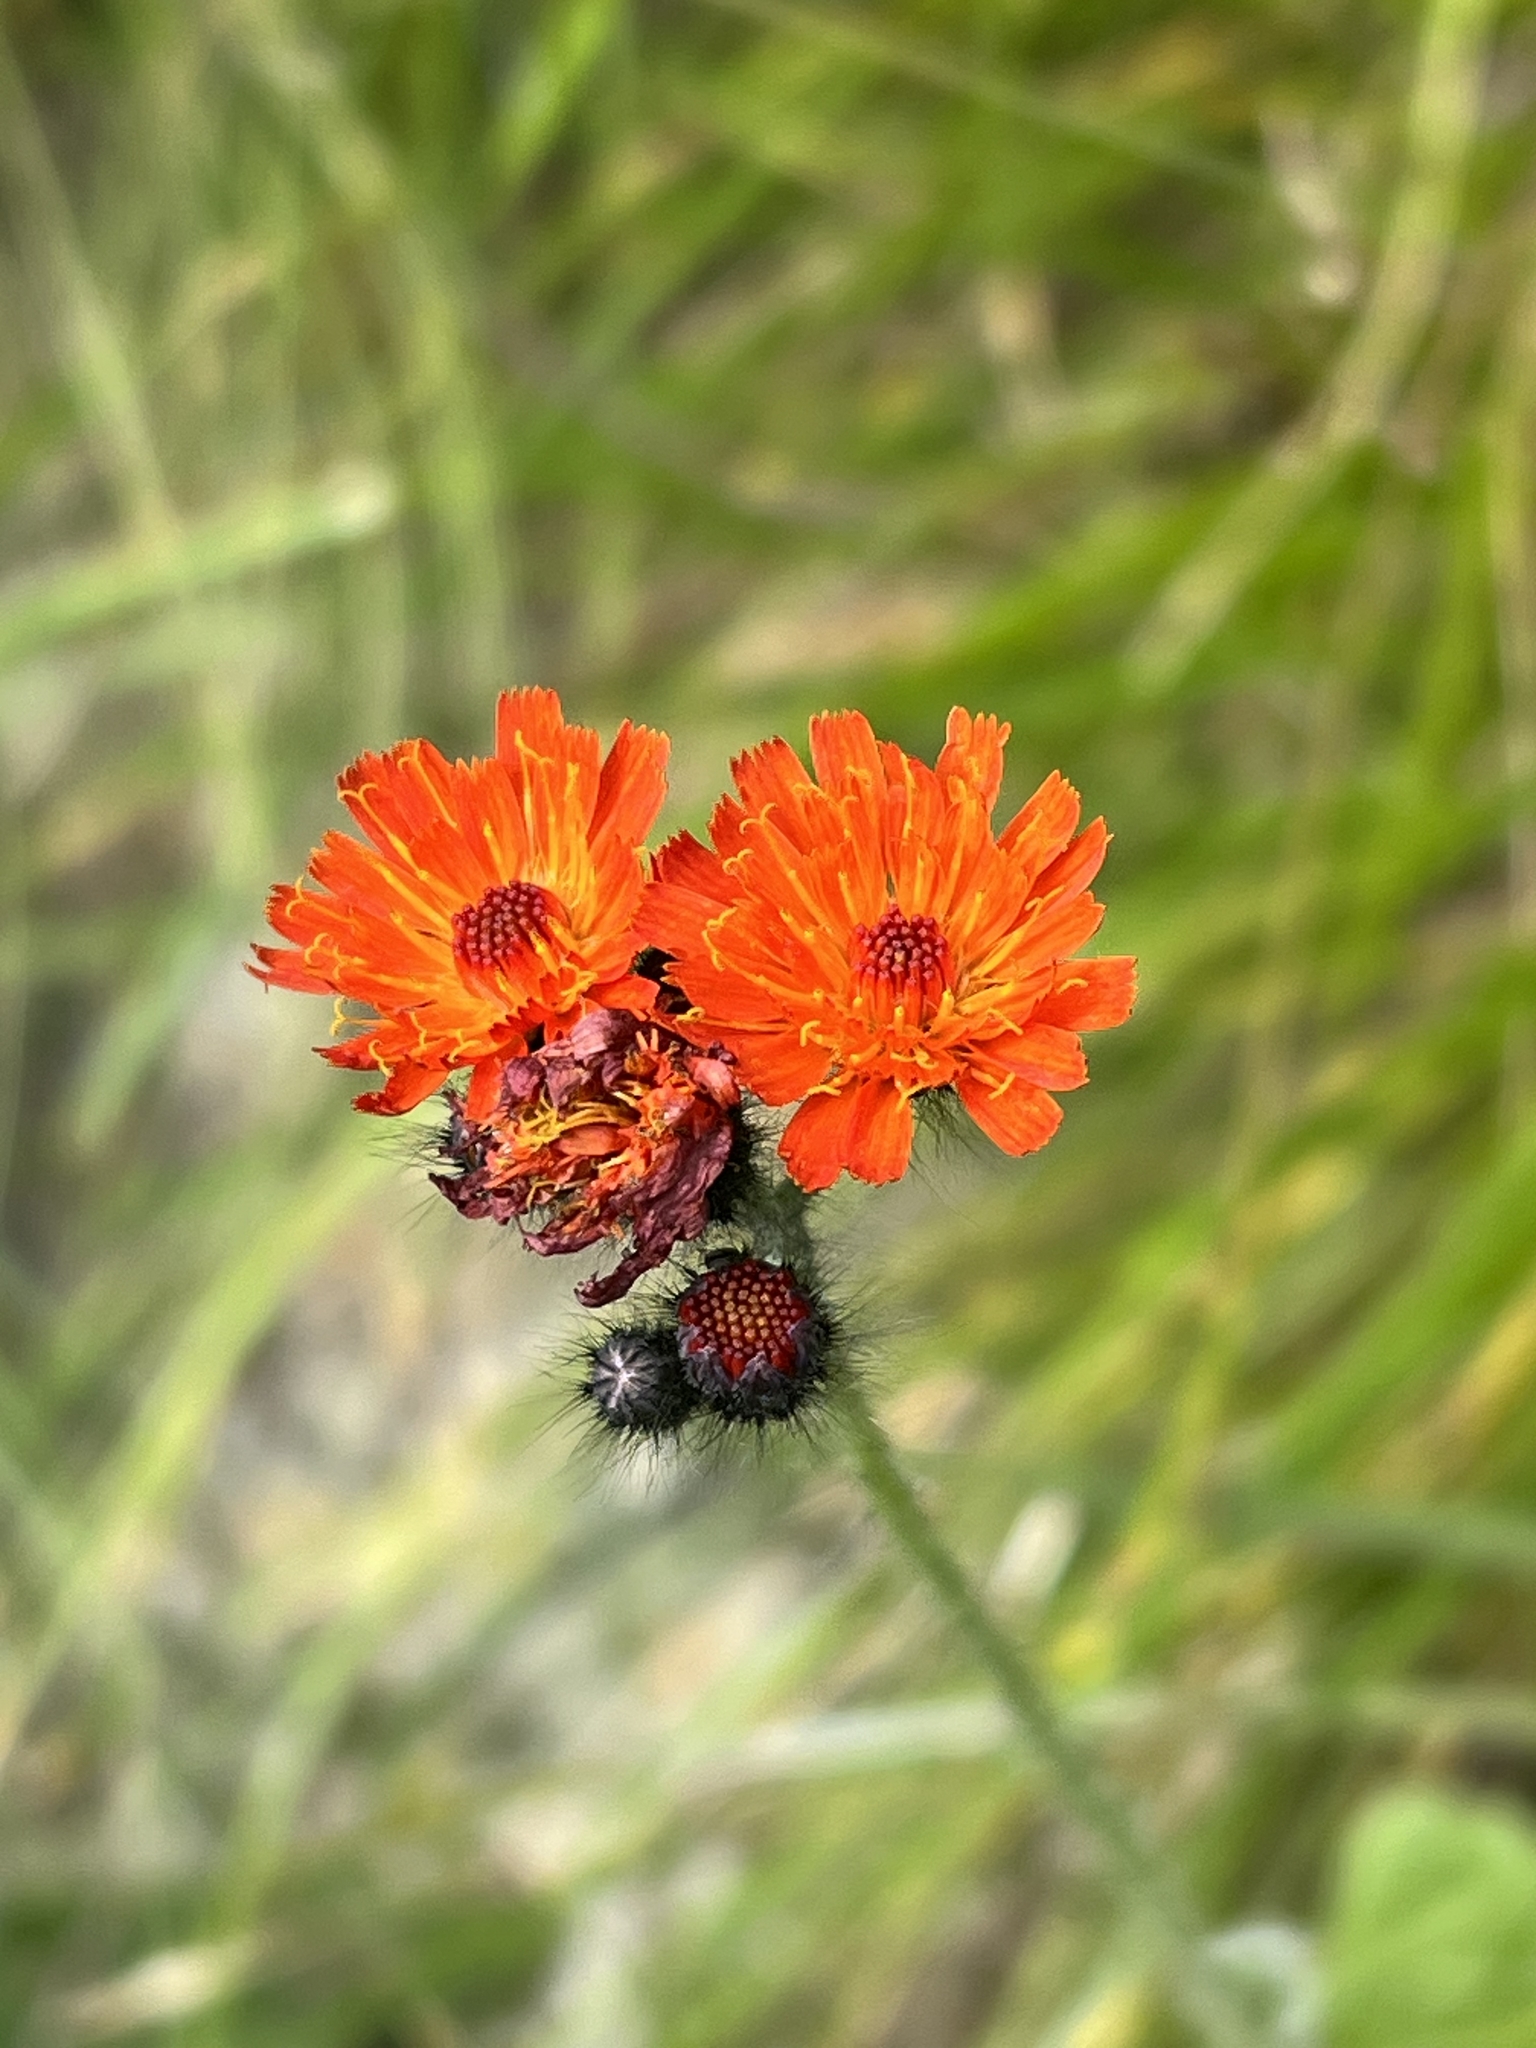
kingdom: Plantae
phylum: Tracheophyta
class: Magnoliopsida
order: Asterales
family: Asteraceae
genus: Pilosella
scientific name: Pilosella aurantiaca
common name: Fox-and-cubs
